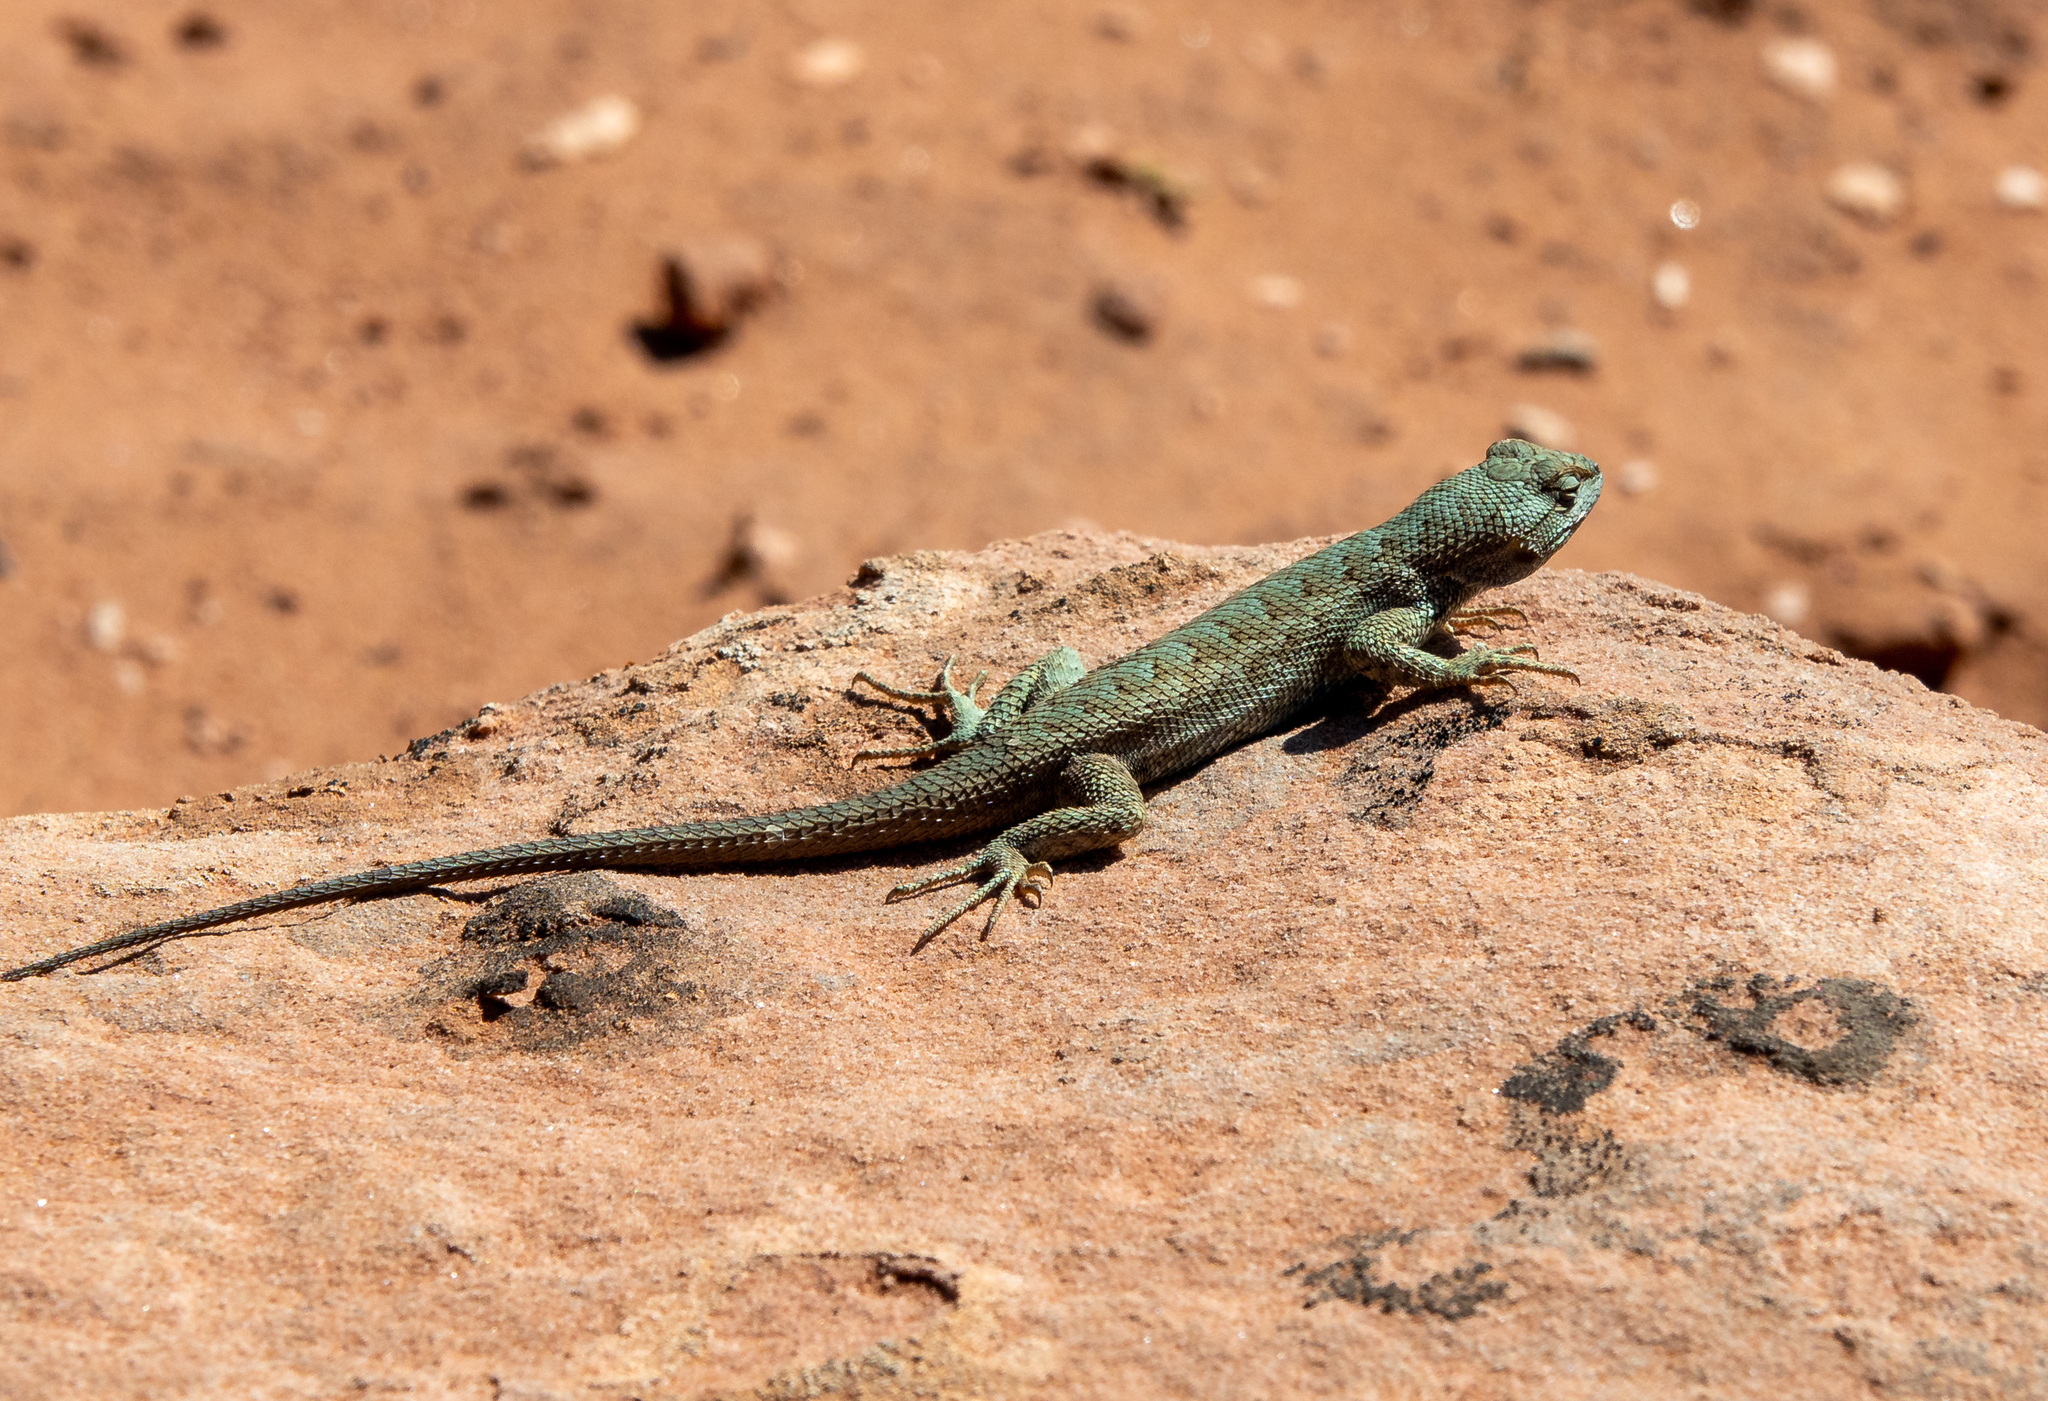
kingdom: Animalia
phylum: Chordata
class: Squamata
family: Phrynosomatidae
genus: Sceloporus
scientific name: Sceloporus tristichus
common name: Plateau fence lizard
